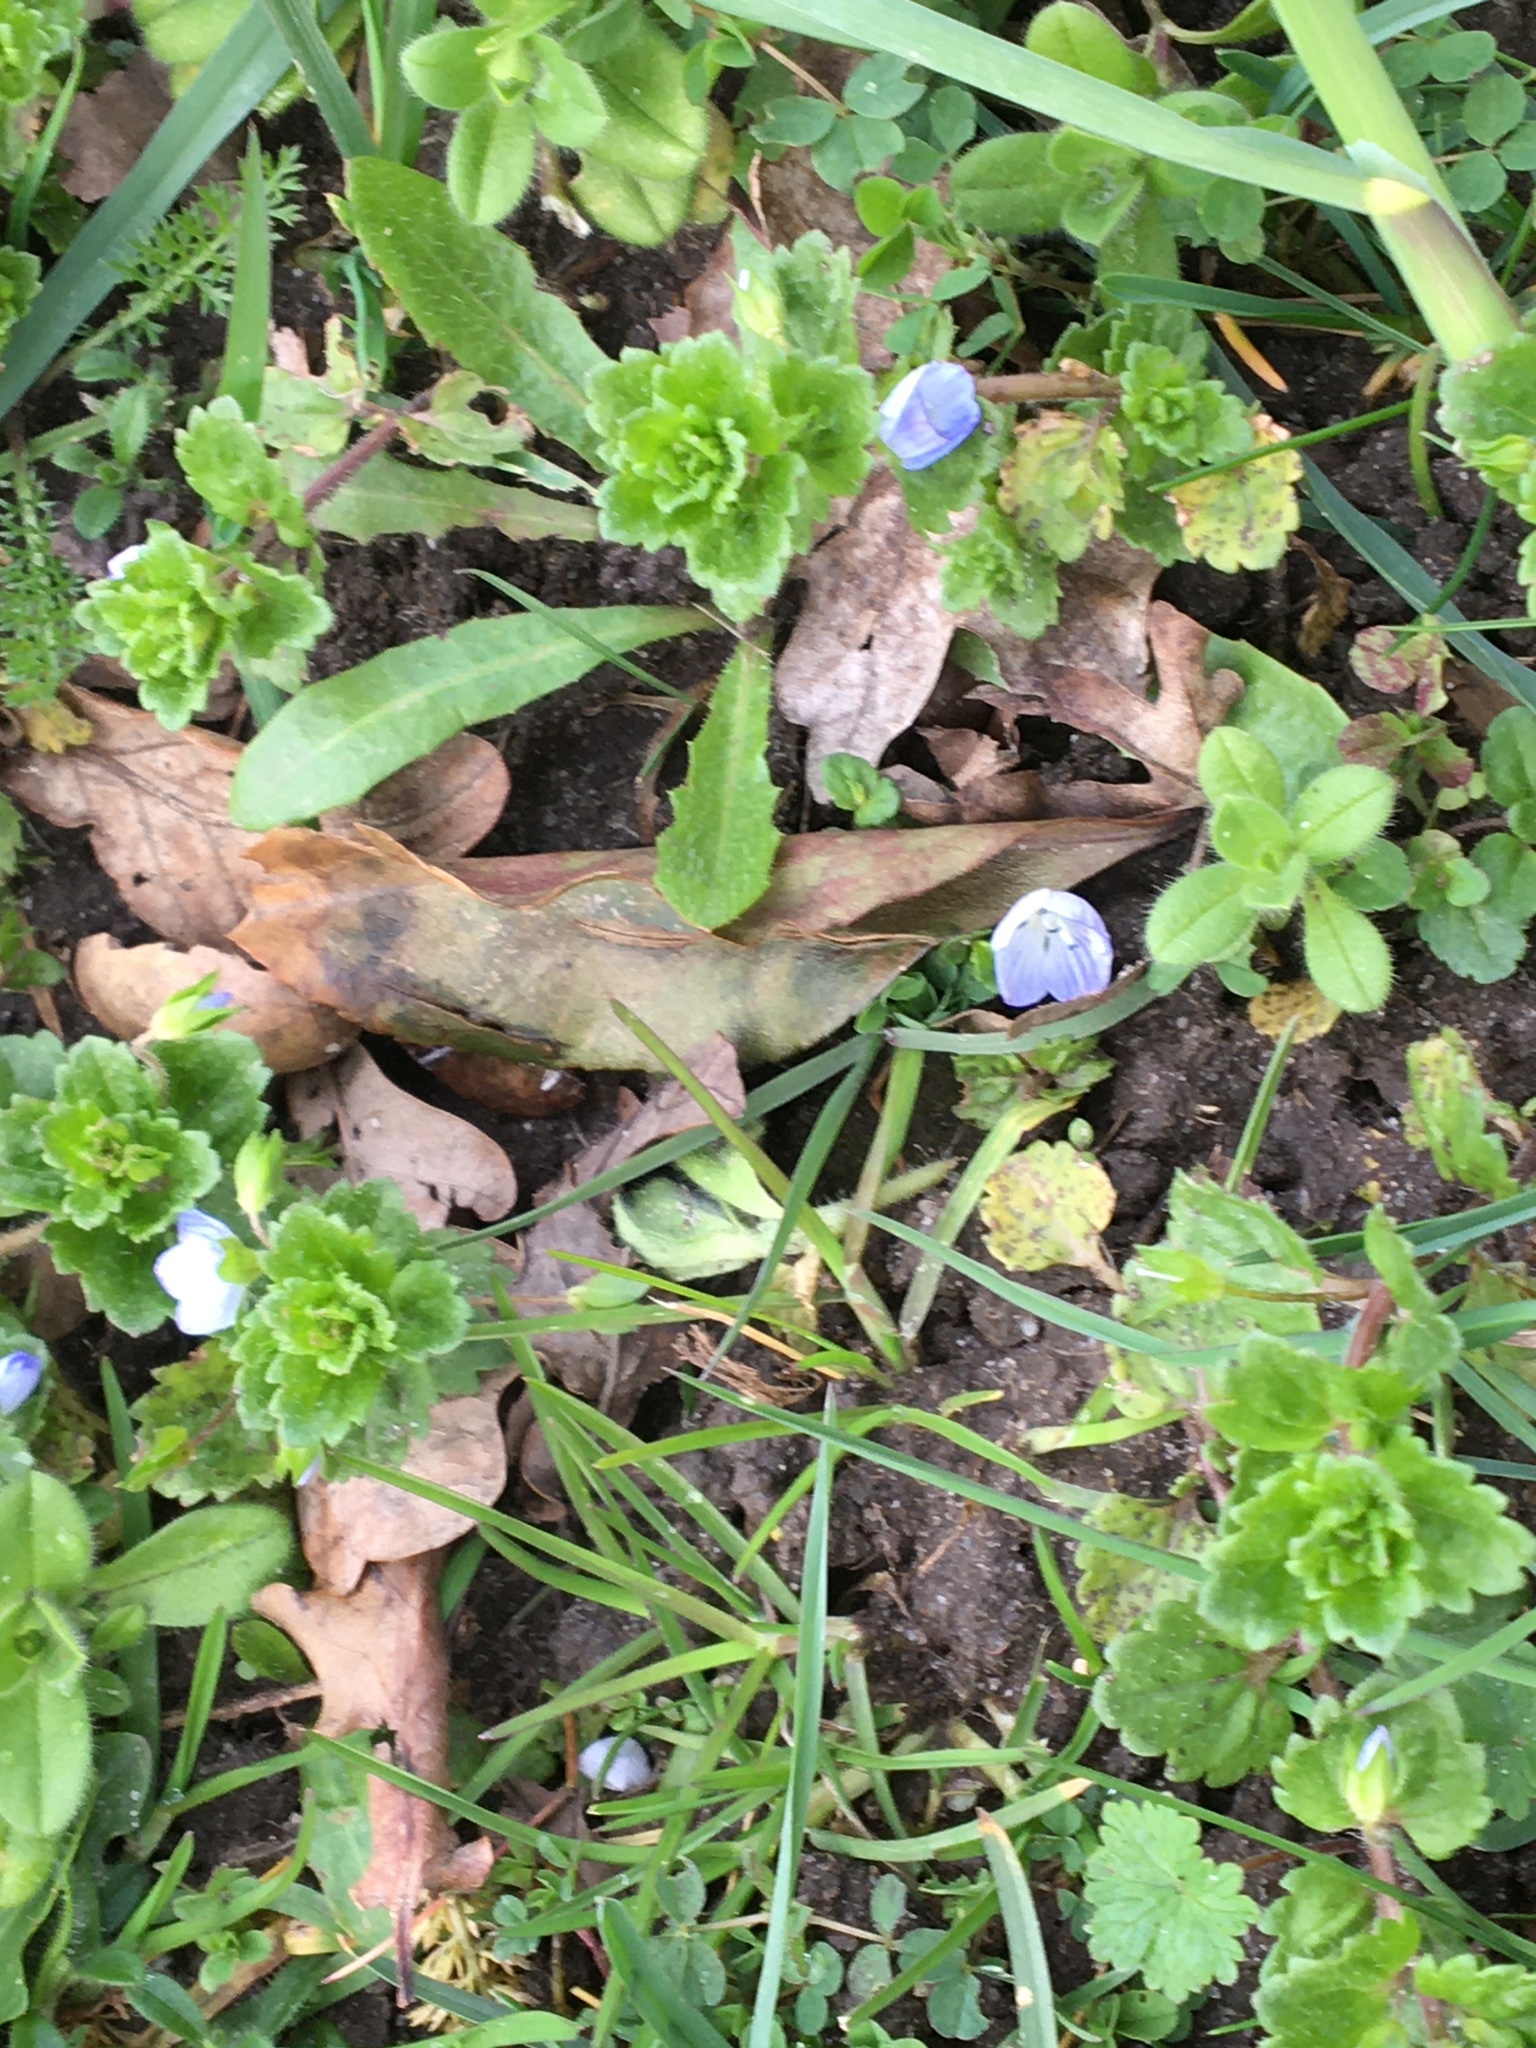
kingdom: Plantae
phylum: Tracheophyta
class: Magnoliopsida
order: Lamiales
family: Plantaginaceae
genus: Veronica
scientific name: Veronica persica
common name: Common field-speedwell
